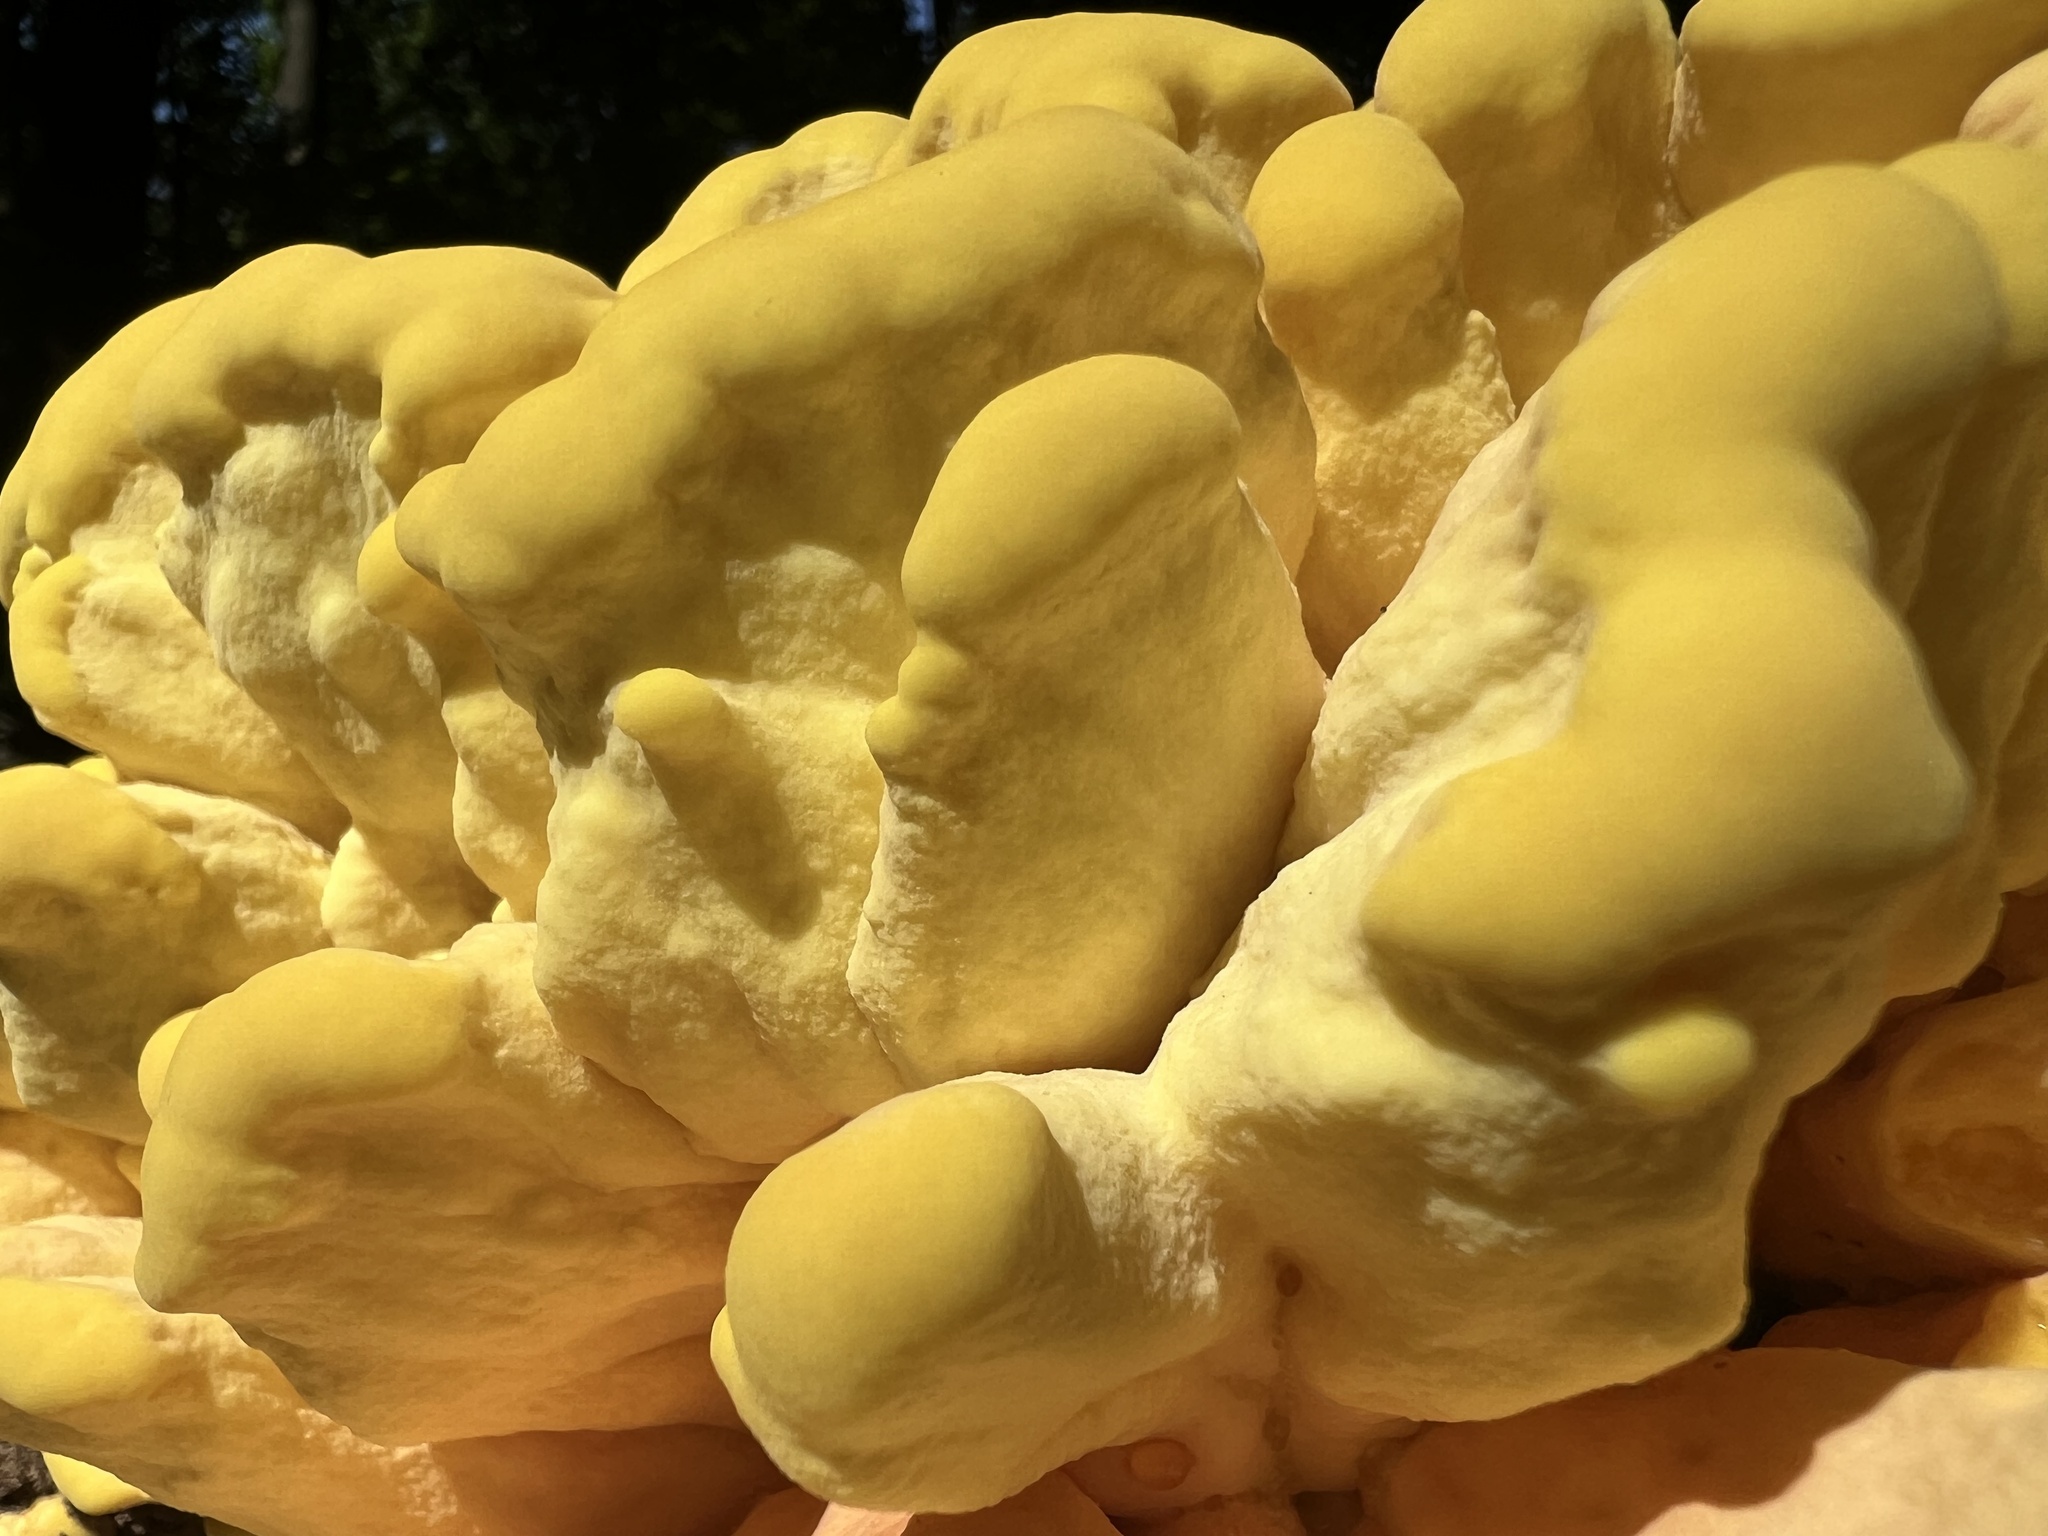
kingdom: Fungi
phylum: Basidiomycota
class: Agaricomycetes
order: Polyporales
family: Laetiporaceae
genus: Laetiporus
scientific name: Laetiporus sulphureus
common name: Chicken of the woods
